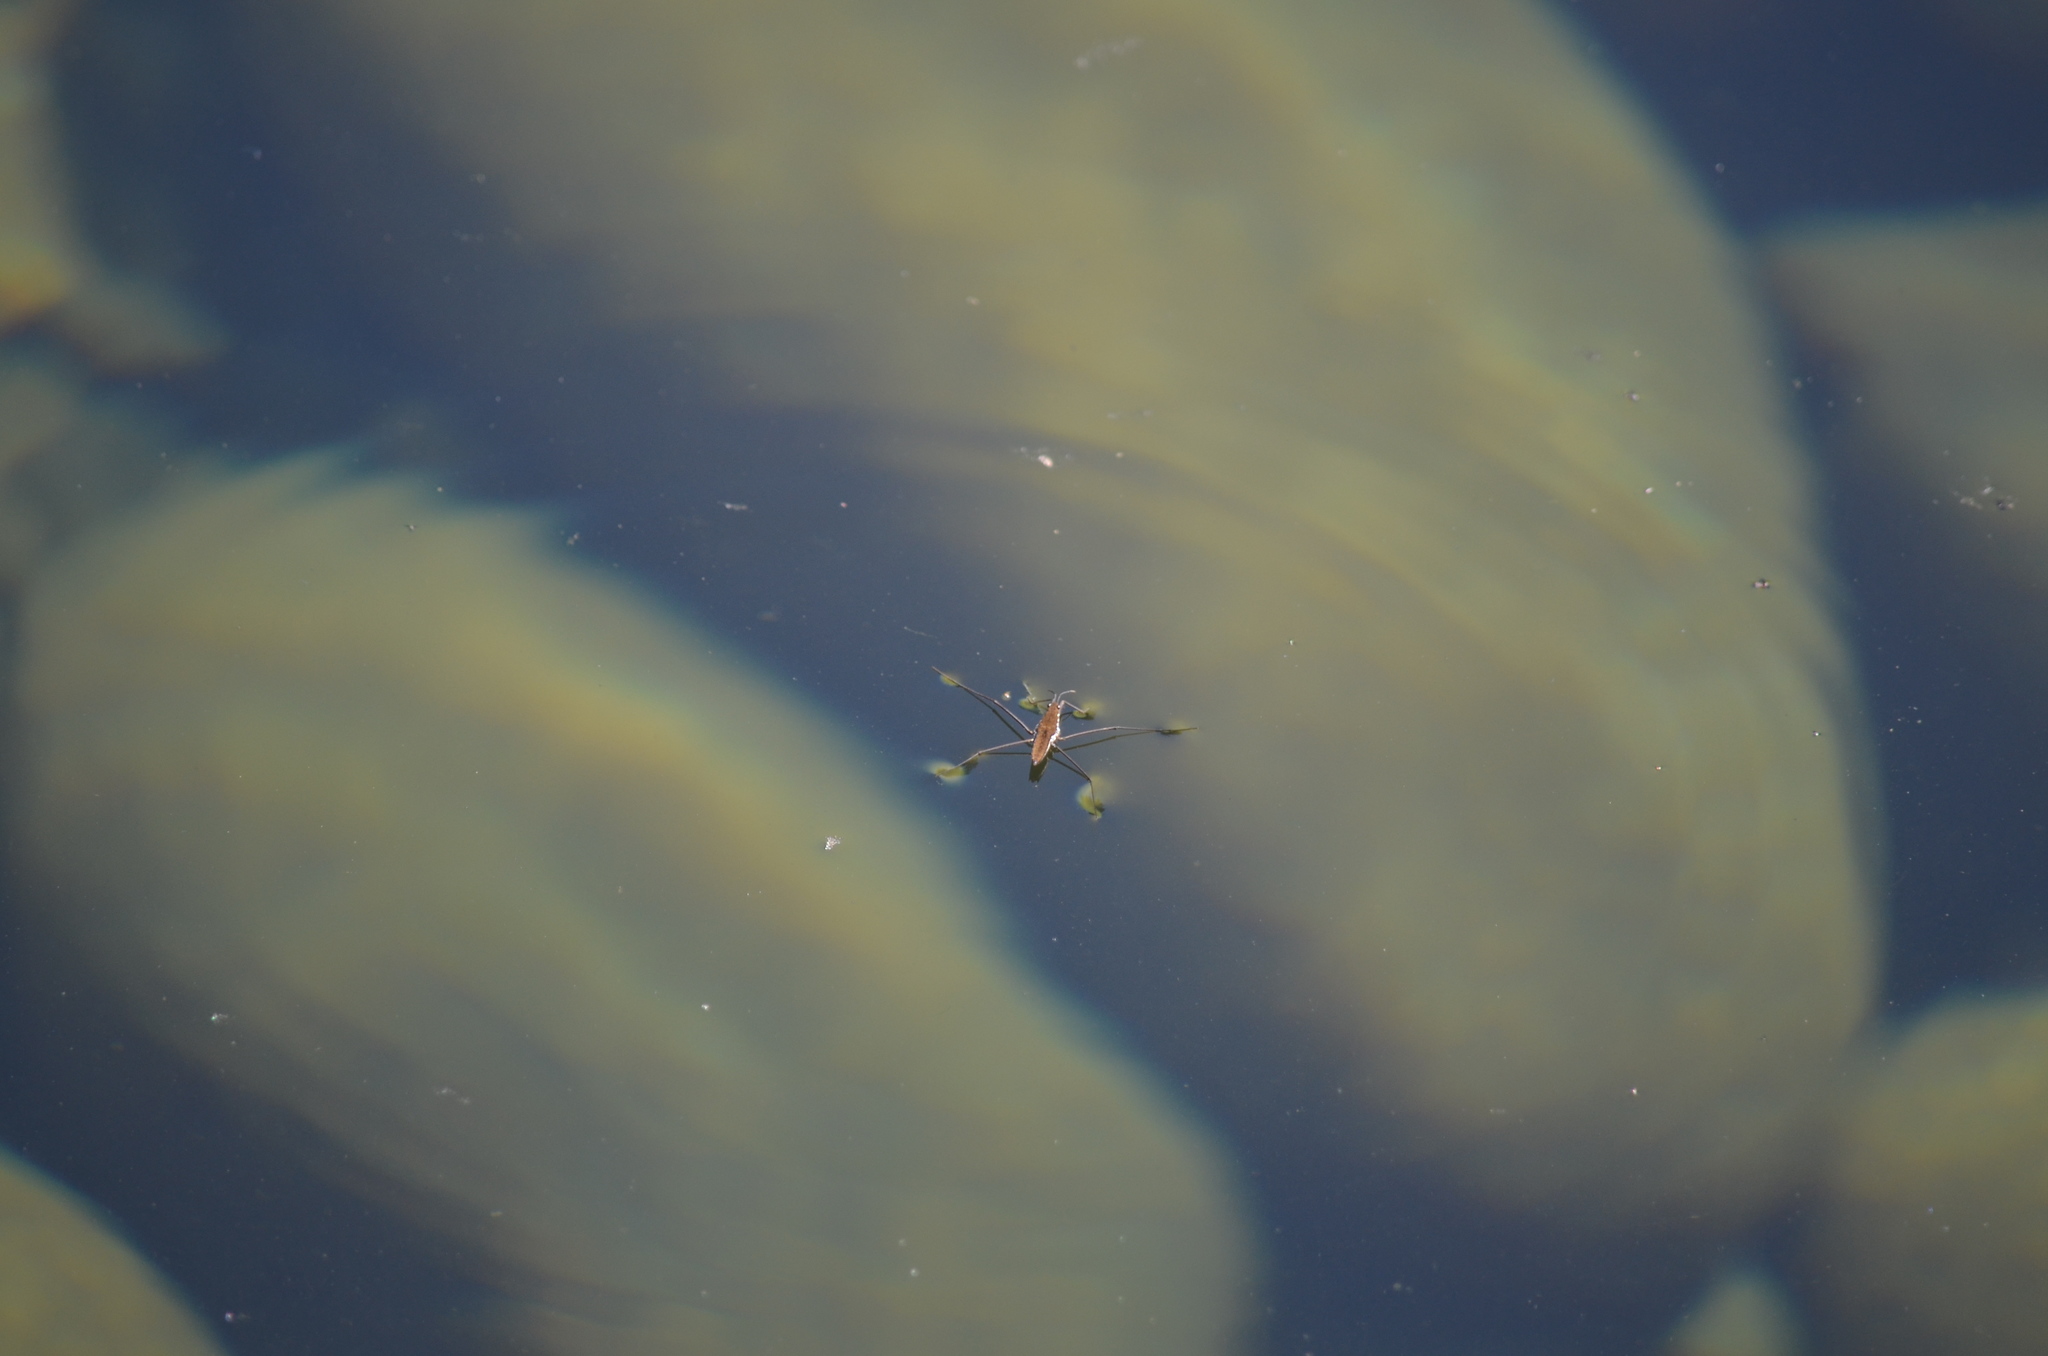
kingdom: Animalia
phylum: Arthropoda
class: Insecta
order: Hemiptera
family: Gerridae
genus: Aquarius
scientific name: Aquarius remigis
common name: Common water strider
